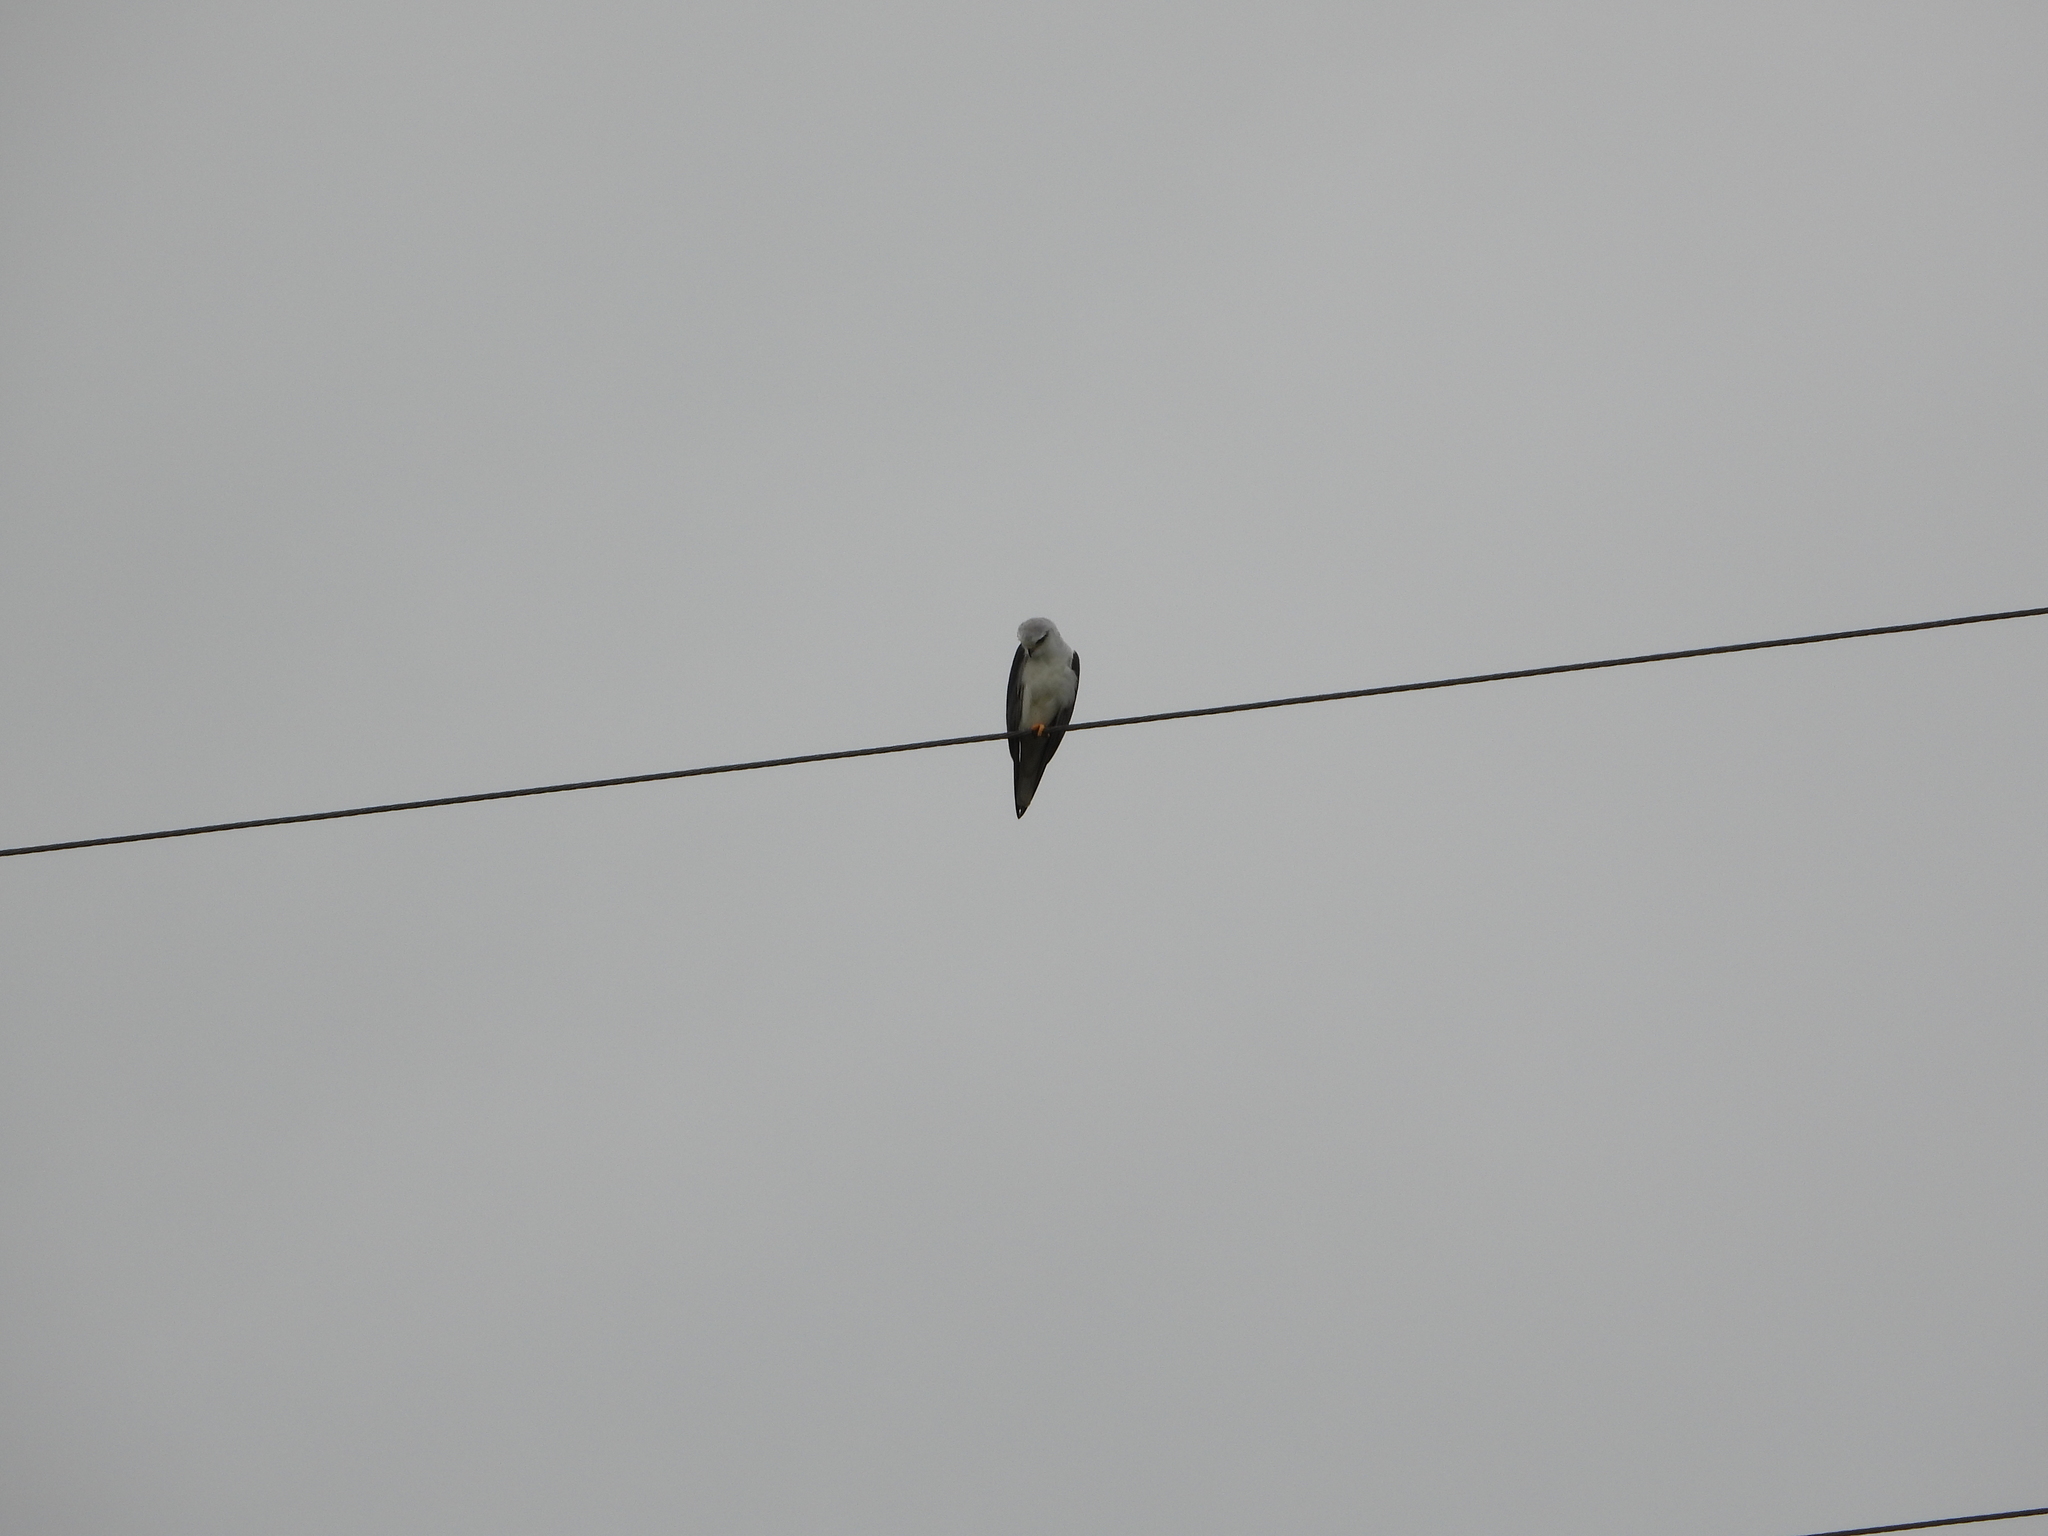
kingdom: Animalia
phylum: Chordata
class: Aves
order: Accipitriformes
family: Accipitridae
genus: Elanus
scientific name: Elanus caeruleus
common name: Black-winged kite
